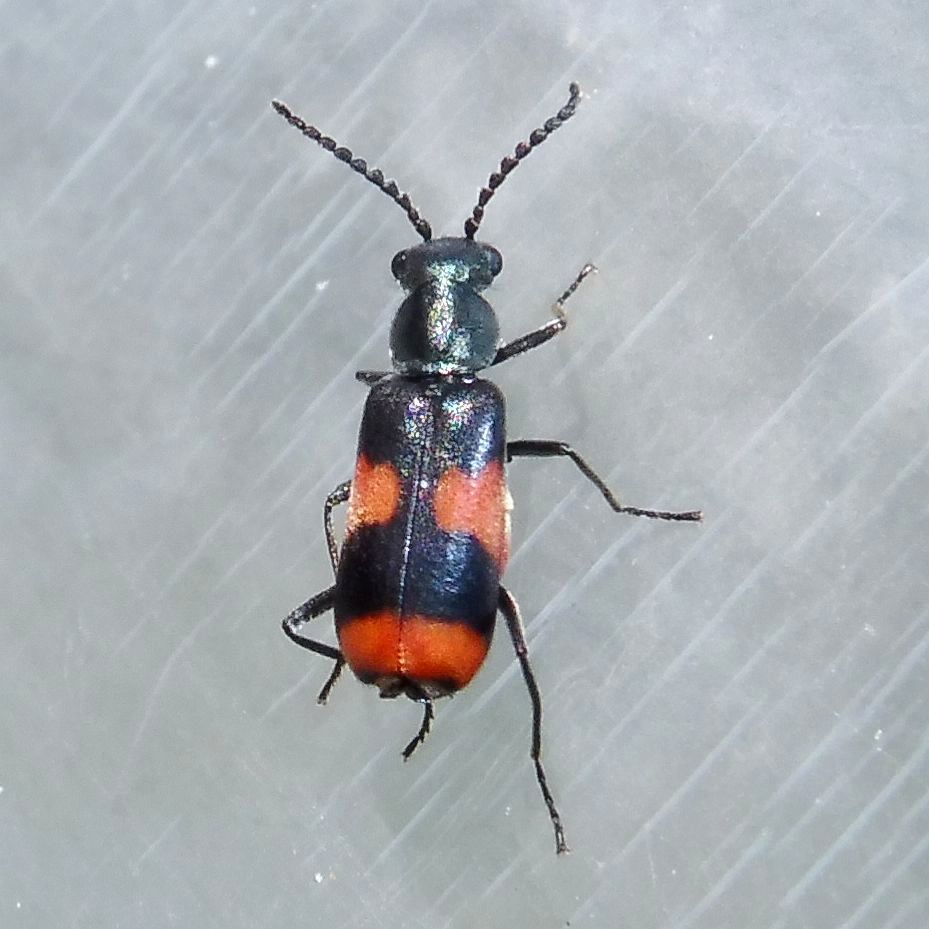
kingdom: Animalia
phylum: Arthropoda
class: Insecta
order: Coleoptera
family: Melyridae
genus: Anthocomus
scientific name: Anthocomus fasciatus
